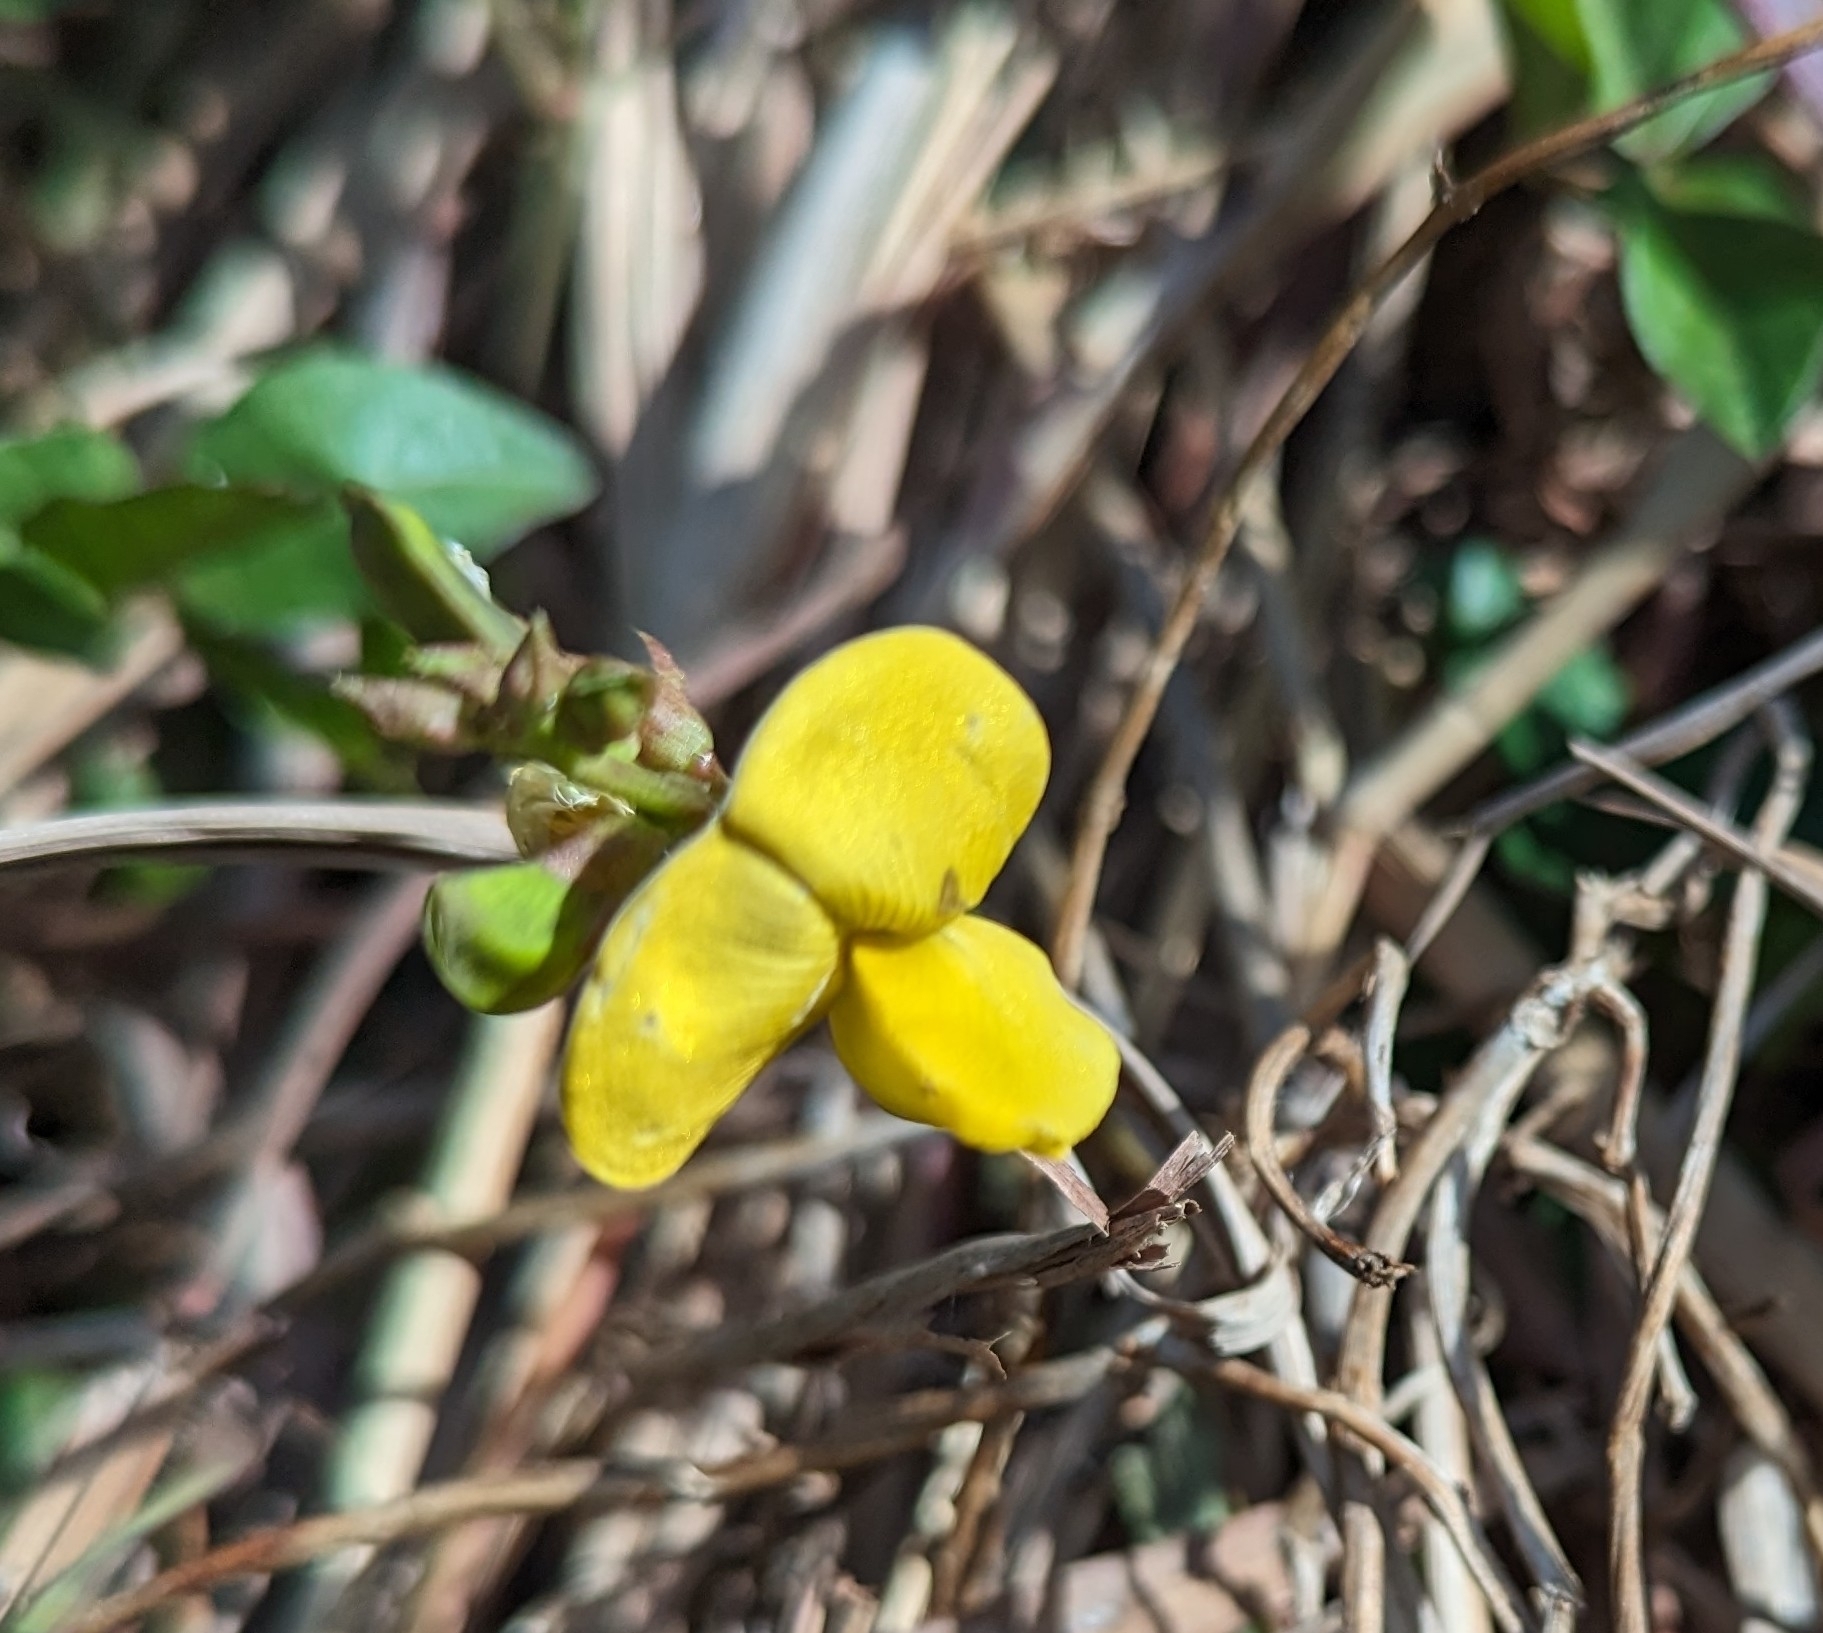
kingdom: Plantae
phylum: Tracheophyta
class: Magnoliopsida
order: Fabales
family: Fabaceae
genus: Vigna
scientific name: Vigna marina
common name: Dune-bean
